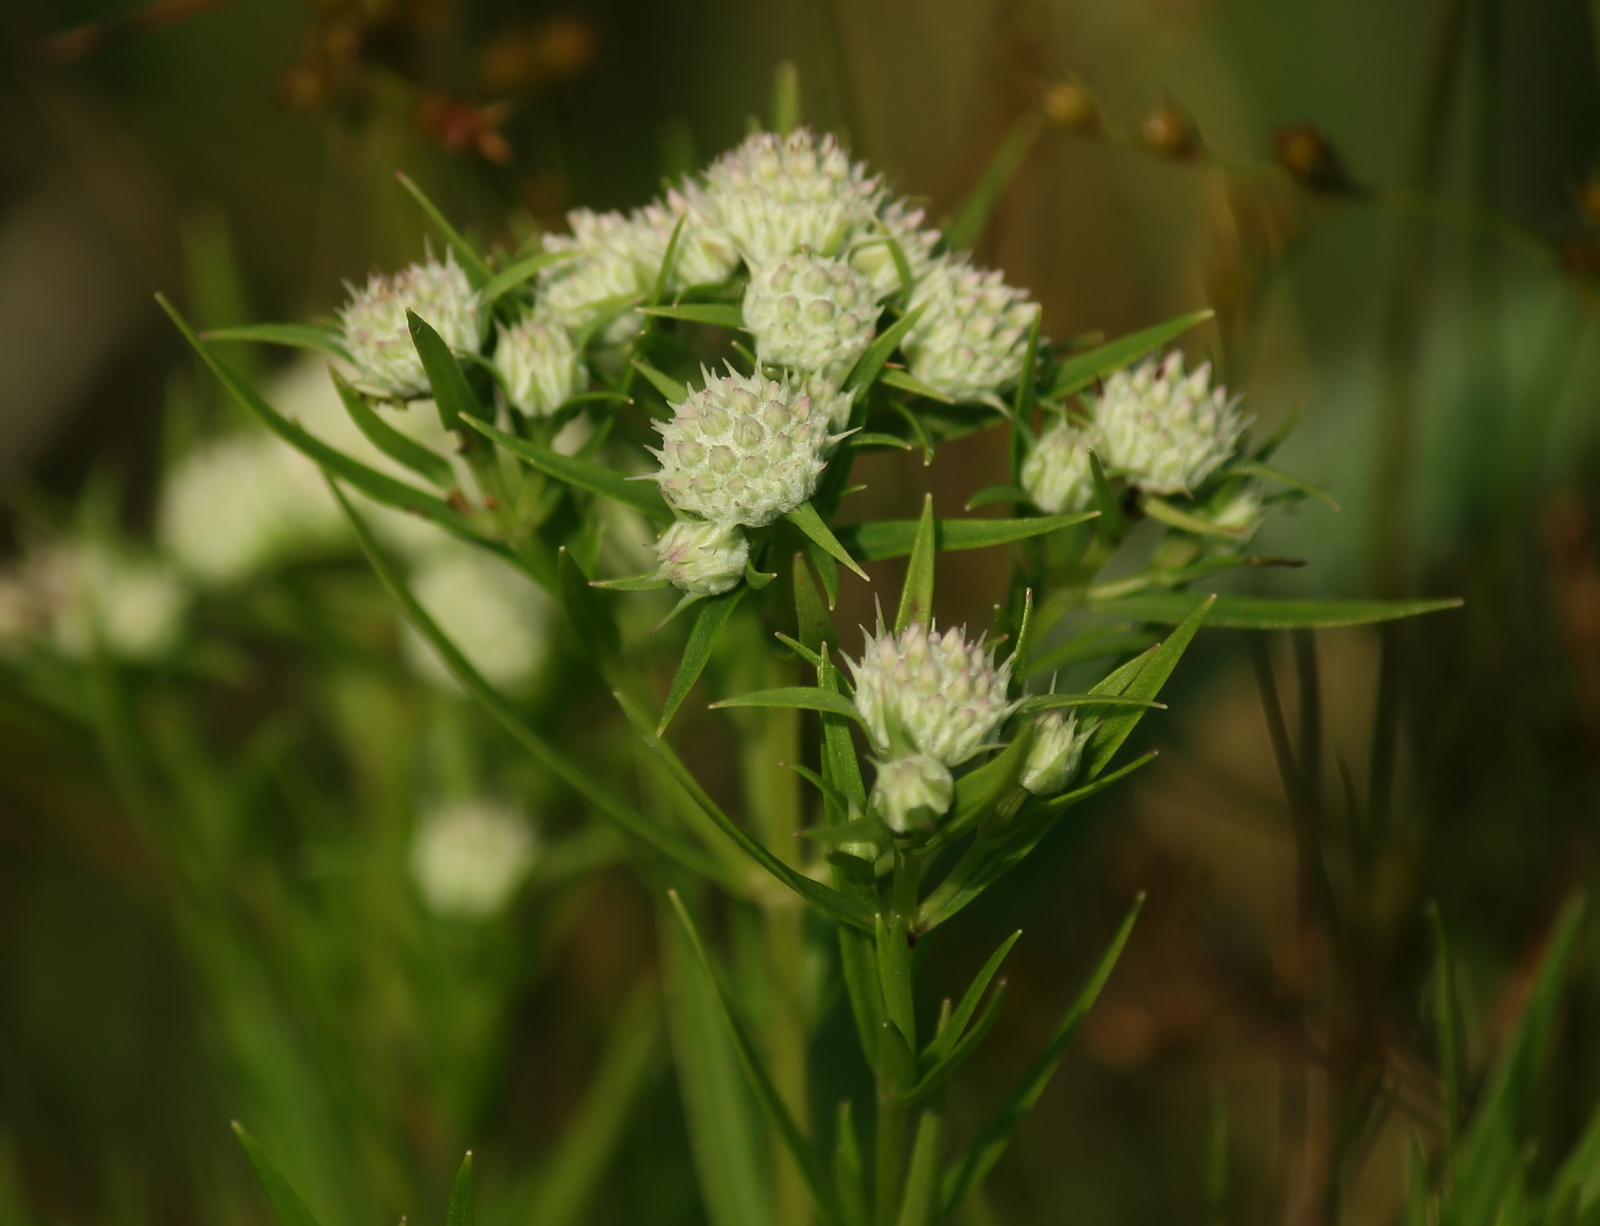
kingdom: Plantae
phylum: Tracheophyta
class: Magnoliopsida
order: Lamiales
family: Lamiaceae
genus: Pycnanthemum
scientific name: Pycnanthemum tenuifolium
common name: Narrow-leaf mountain-mint
